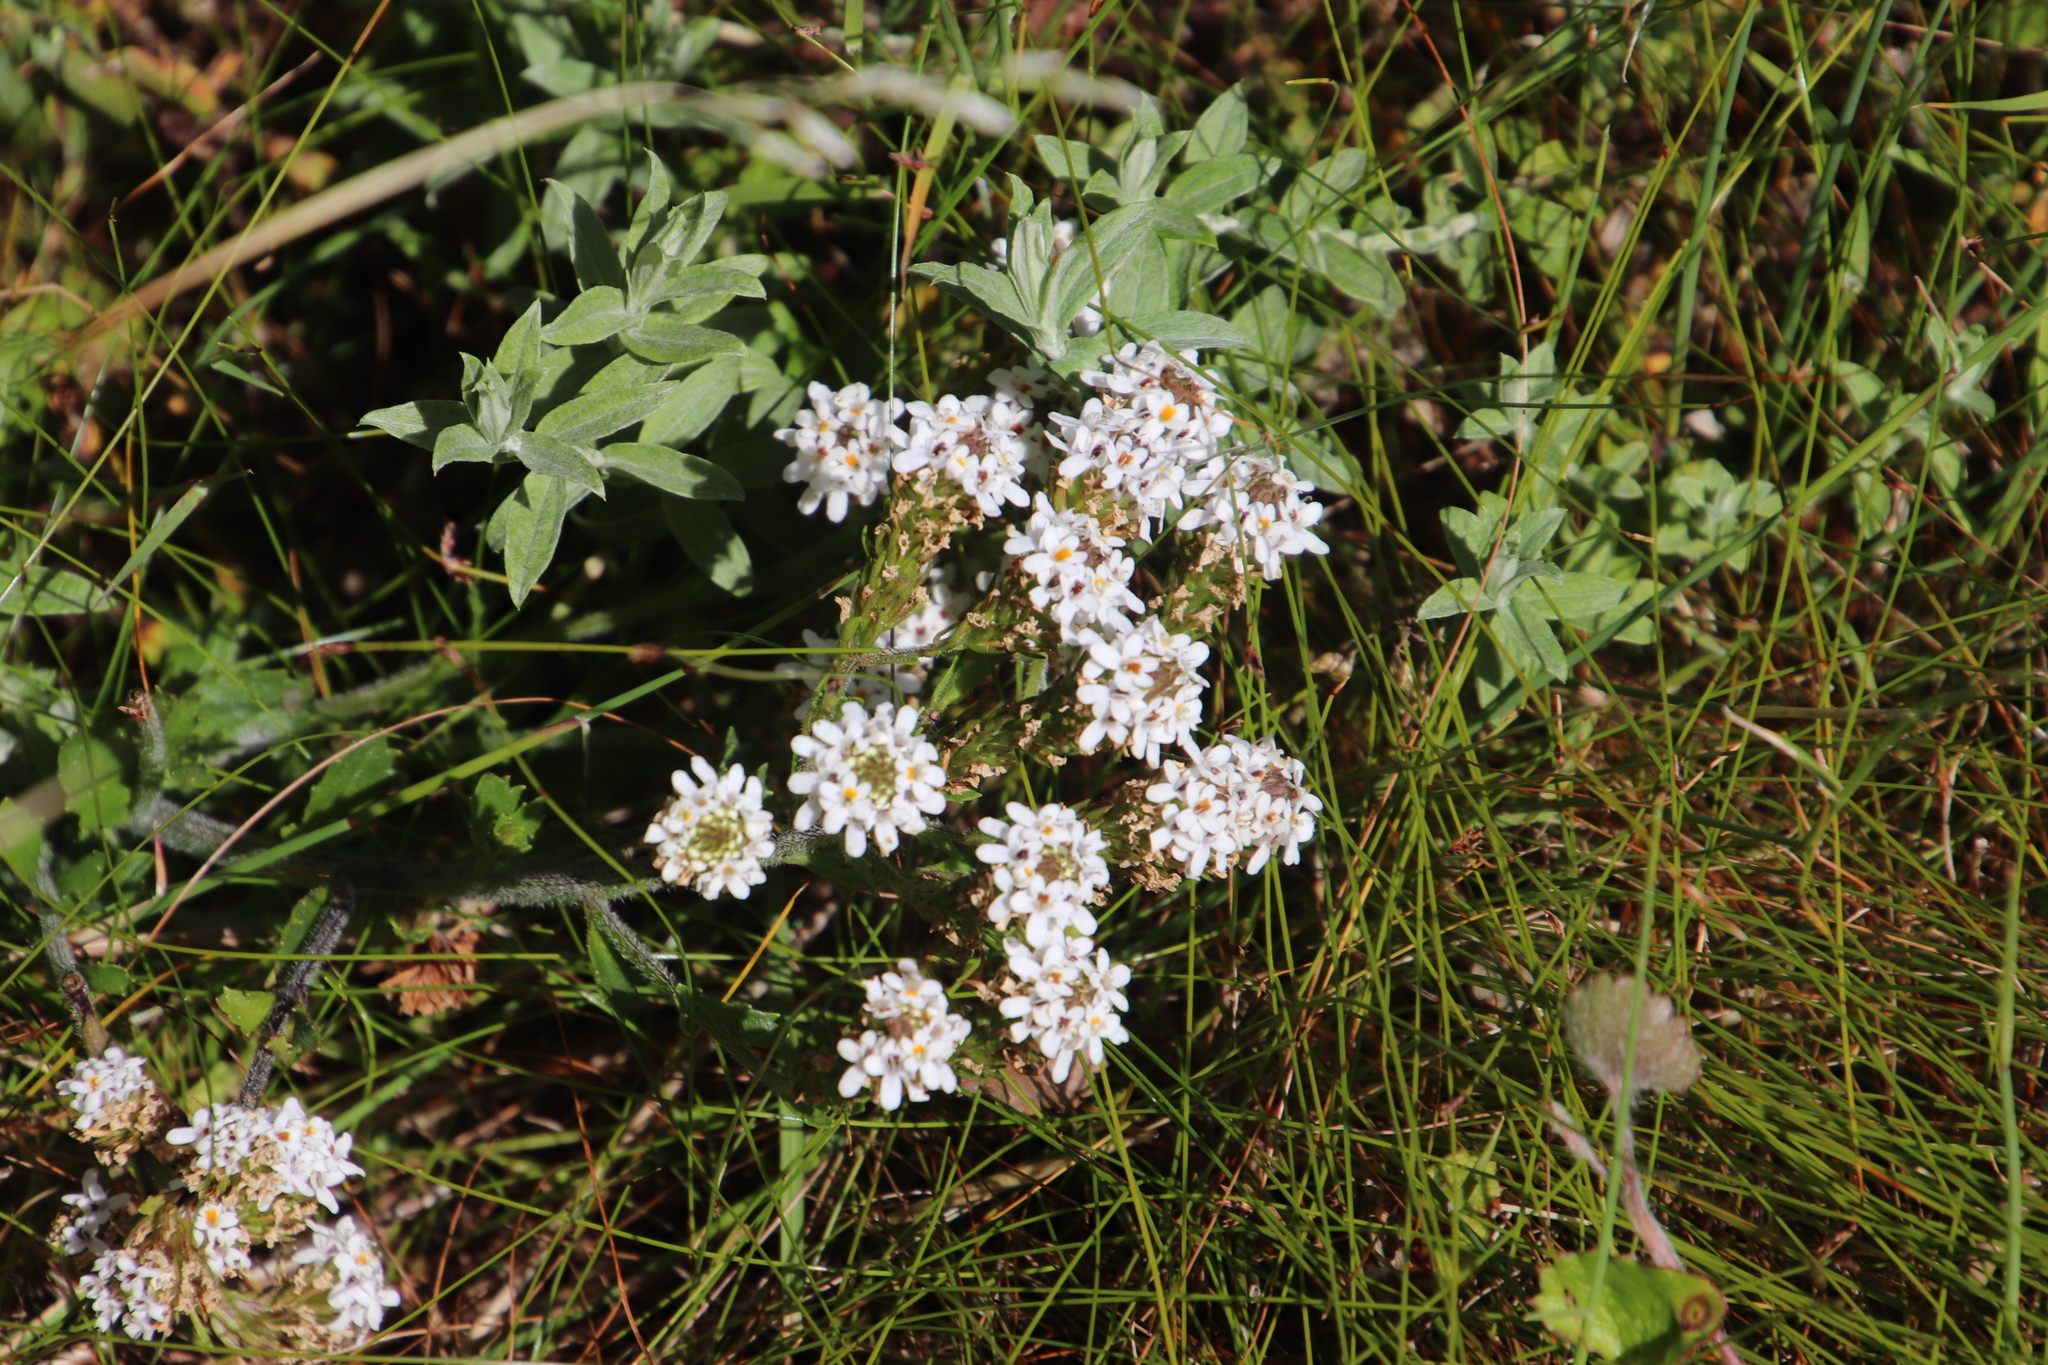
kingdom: Plantae
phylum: Tracheophyta
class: Magnoliopsida
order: Lamiales
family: Scrophulariaceae
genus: Pseudoselago
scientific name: Pseudoselago peninsulae
